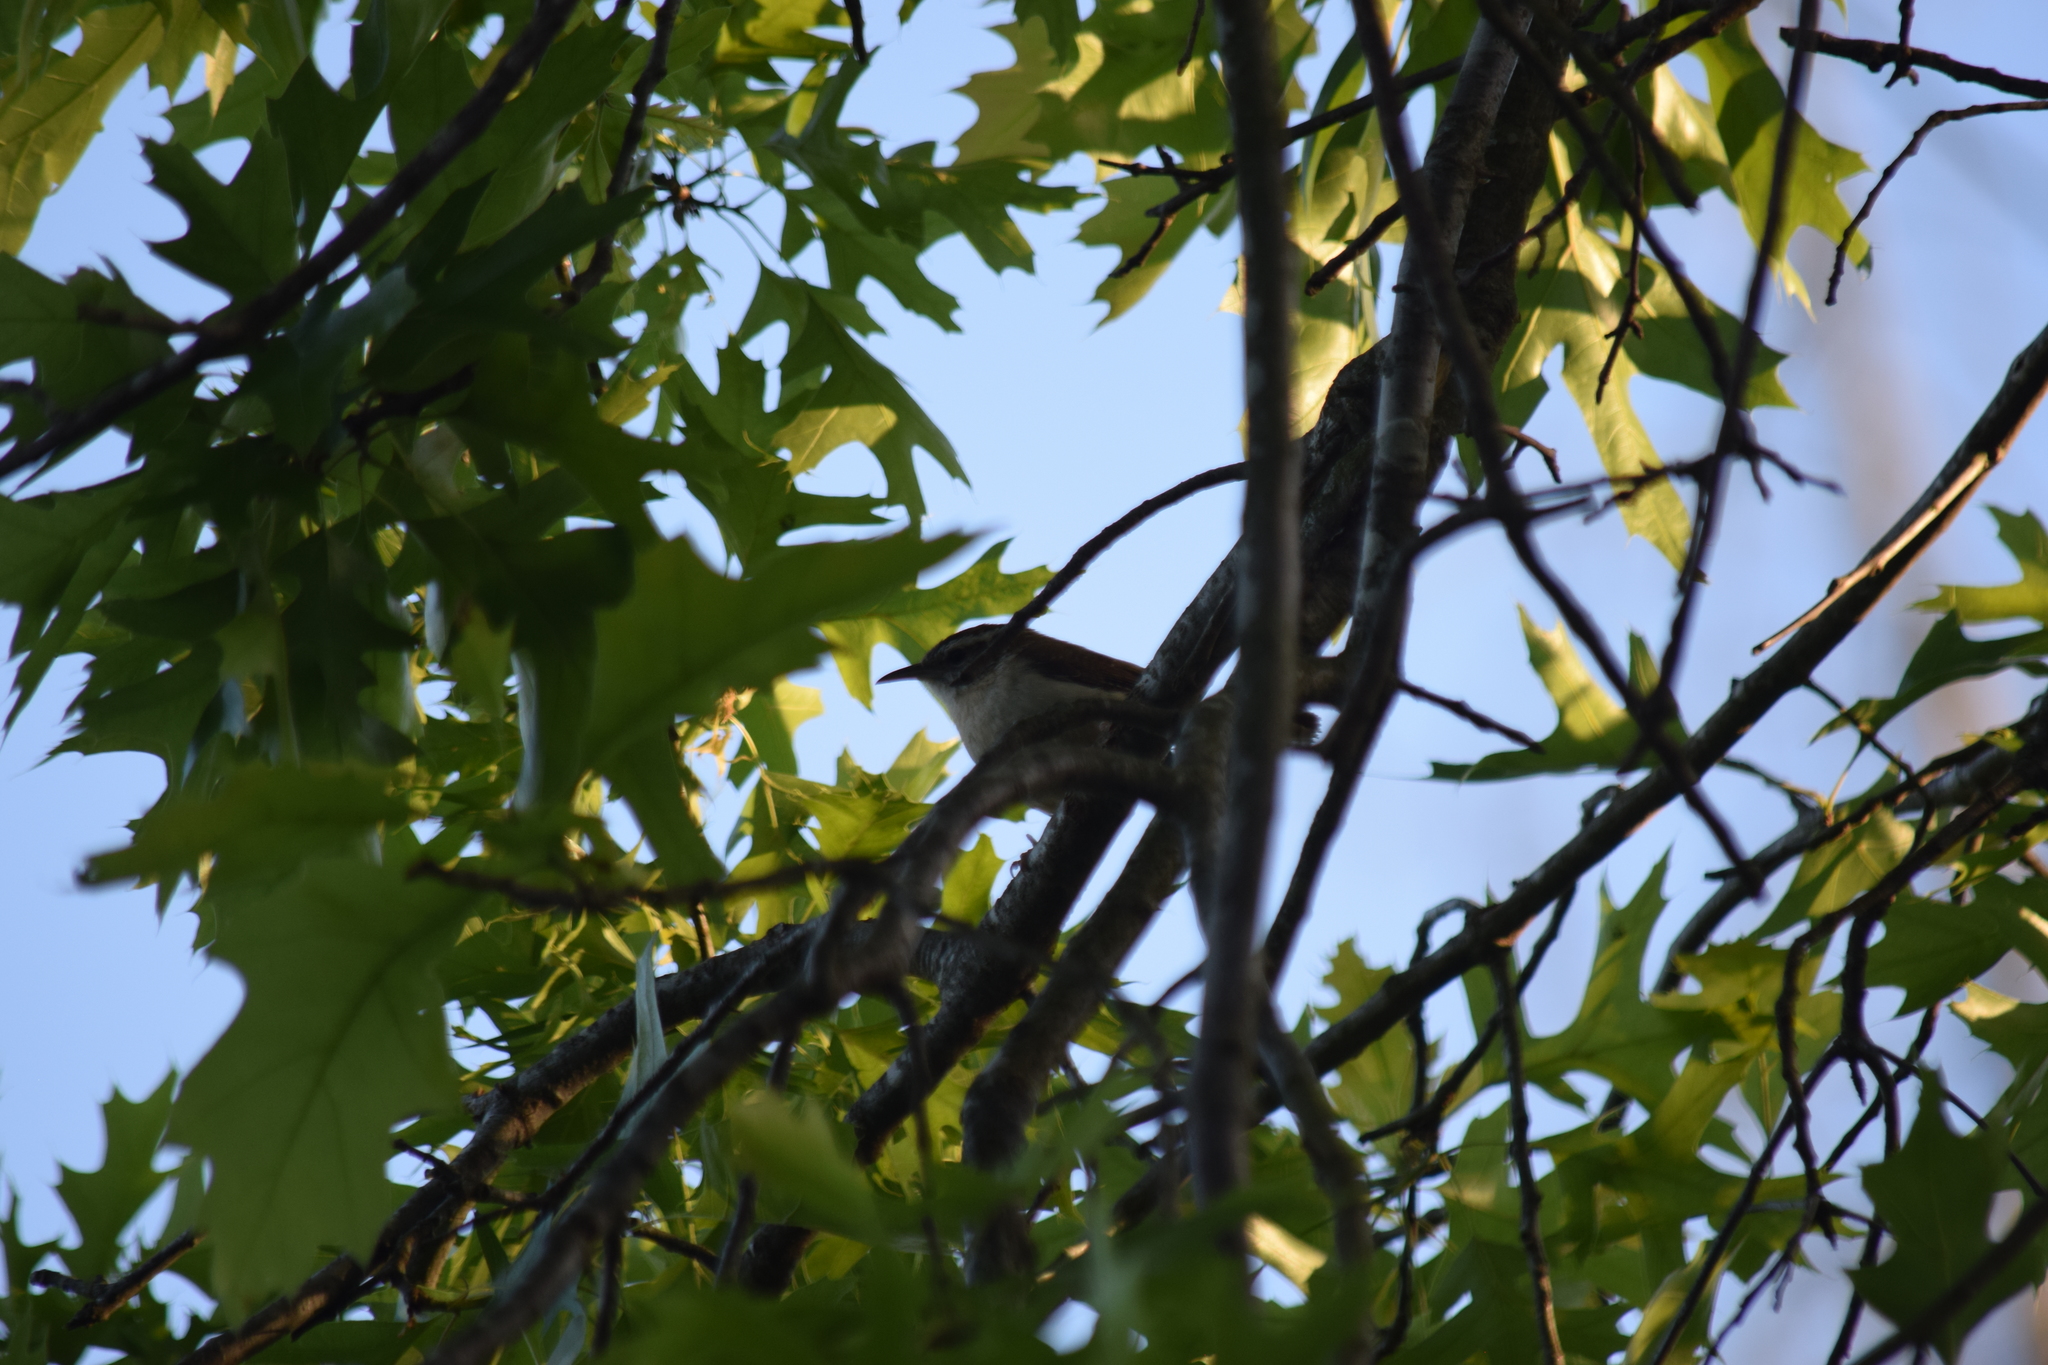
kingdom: Animalia
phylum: Chordata
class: Aves
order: Passeriformes
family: Troglodytidae
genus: Thryothorus
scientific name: Thryothorus ludovicianus
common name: Carolina wren
